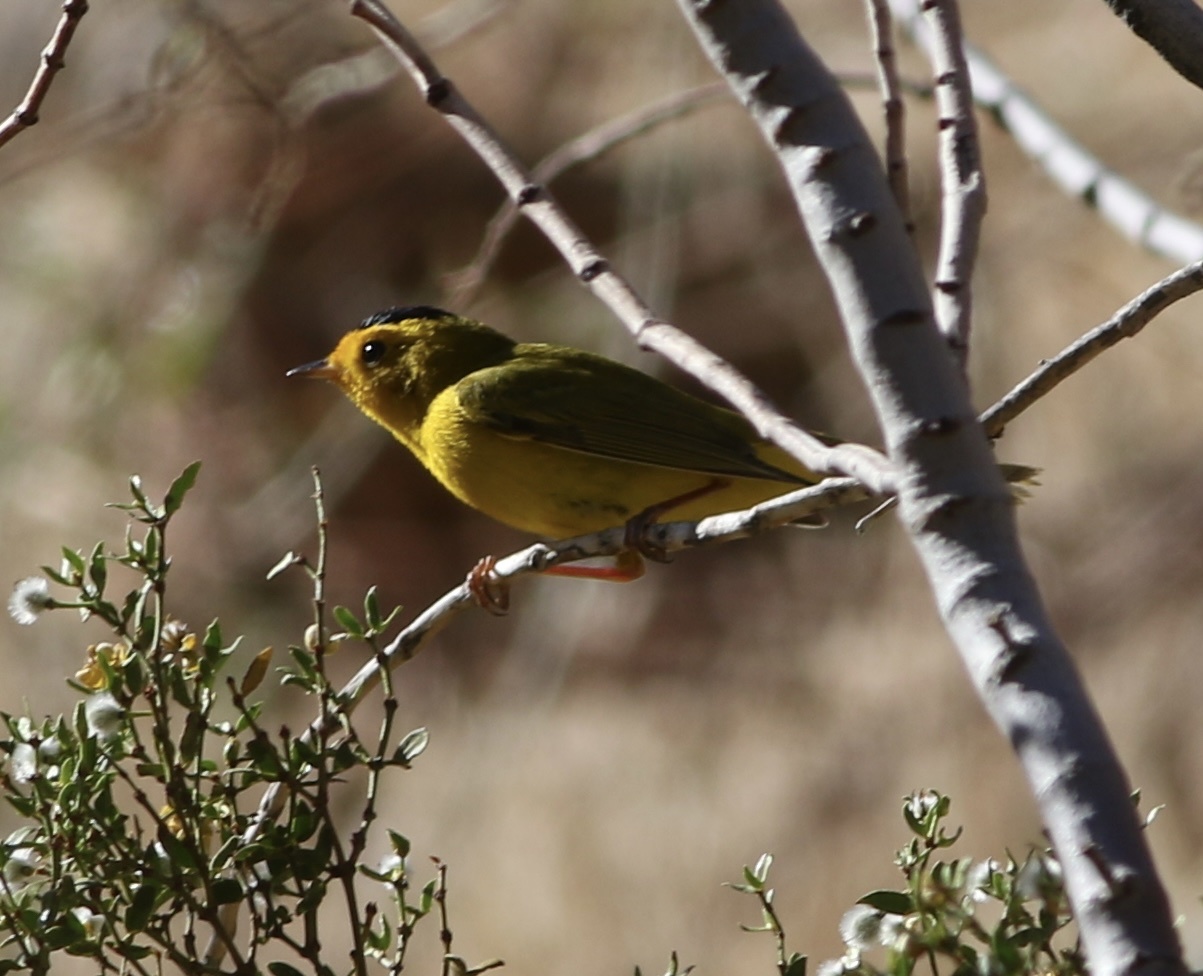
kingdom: Animalia
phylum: Chordata
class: Aves
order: Passeriformes
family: Parulidae
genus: Cardellina
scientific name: Cardellina pusilla
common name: Wilson's warbler
